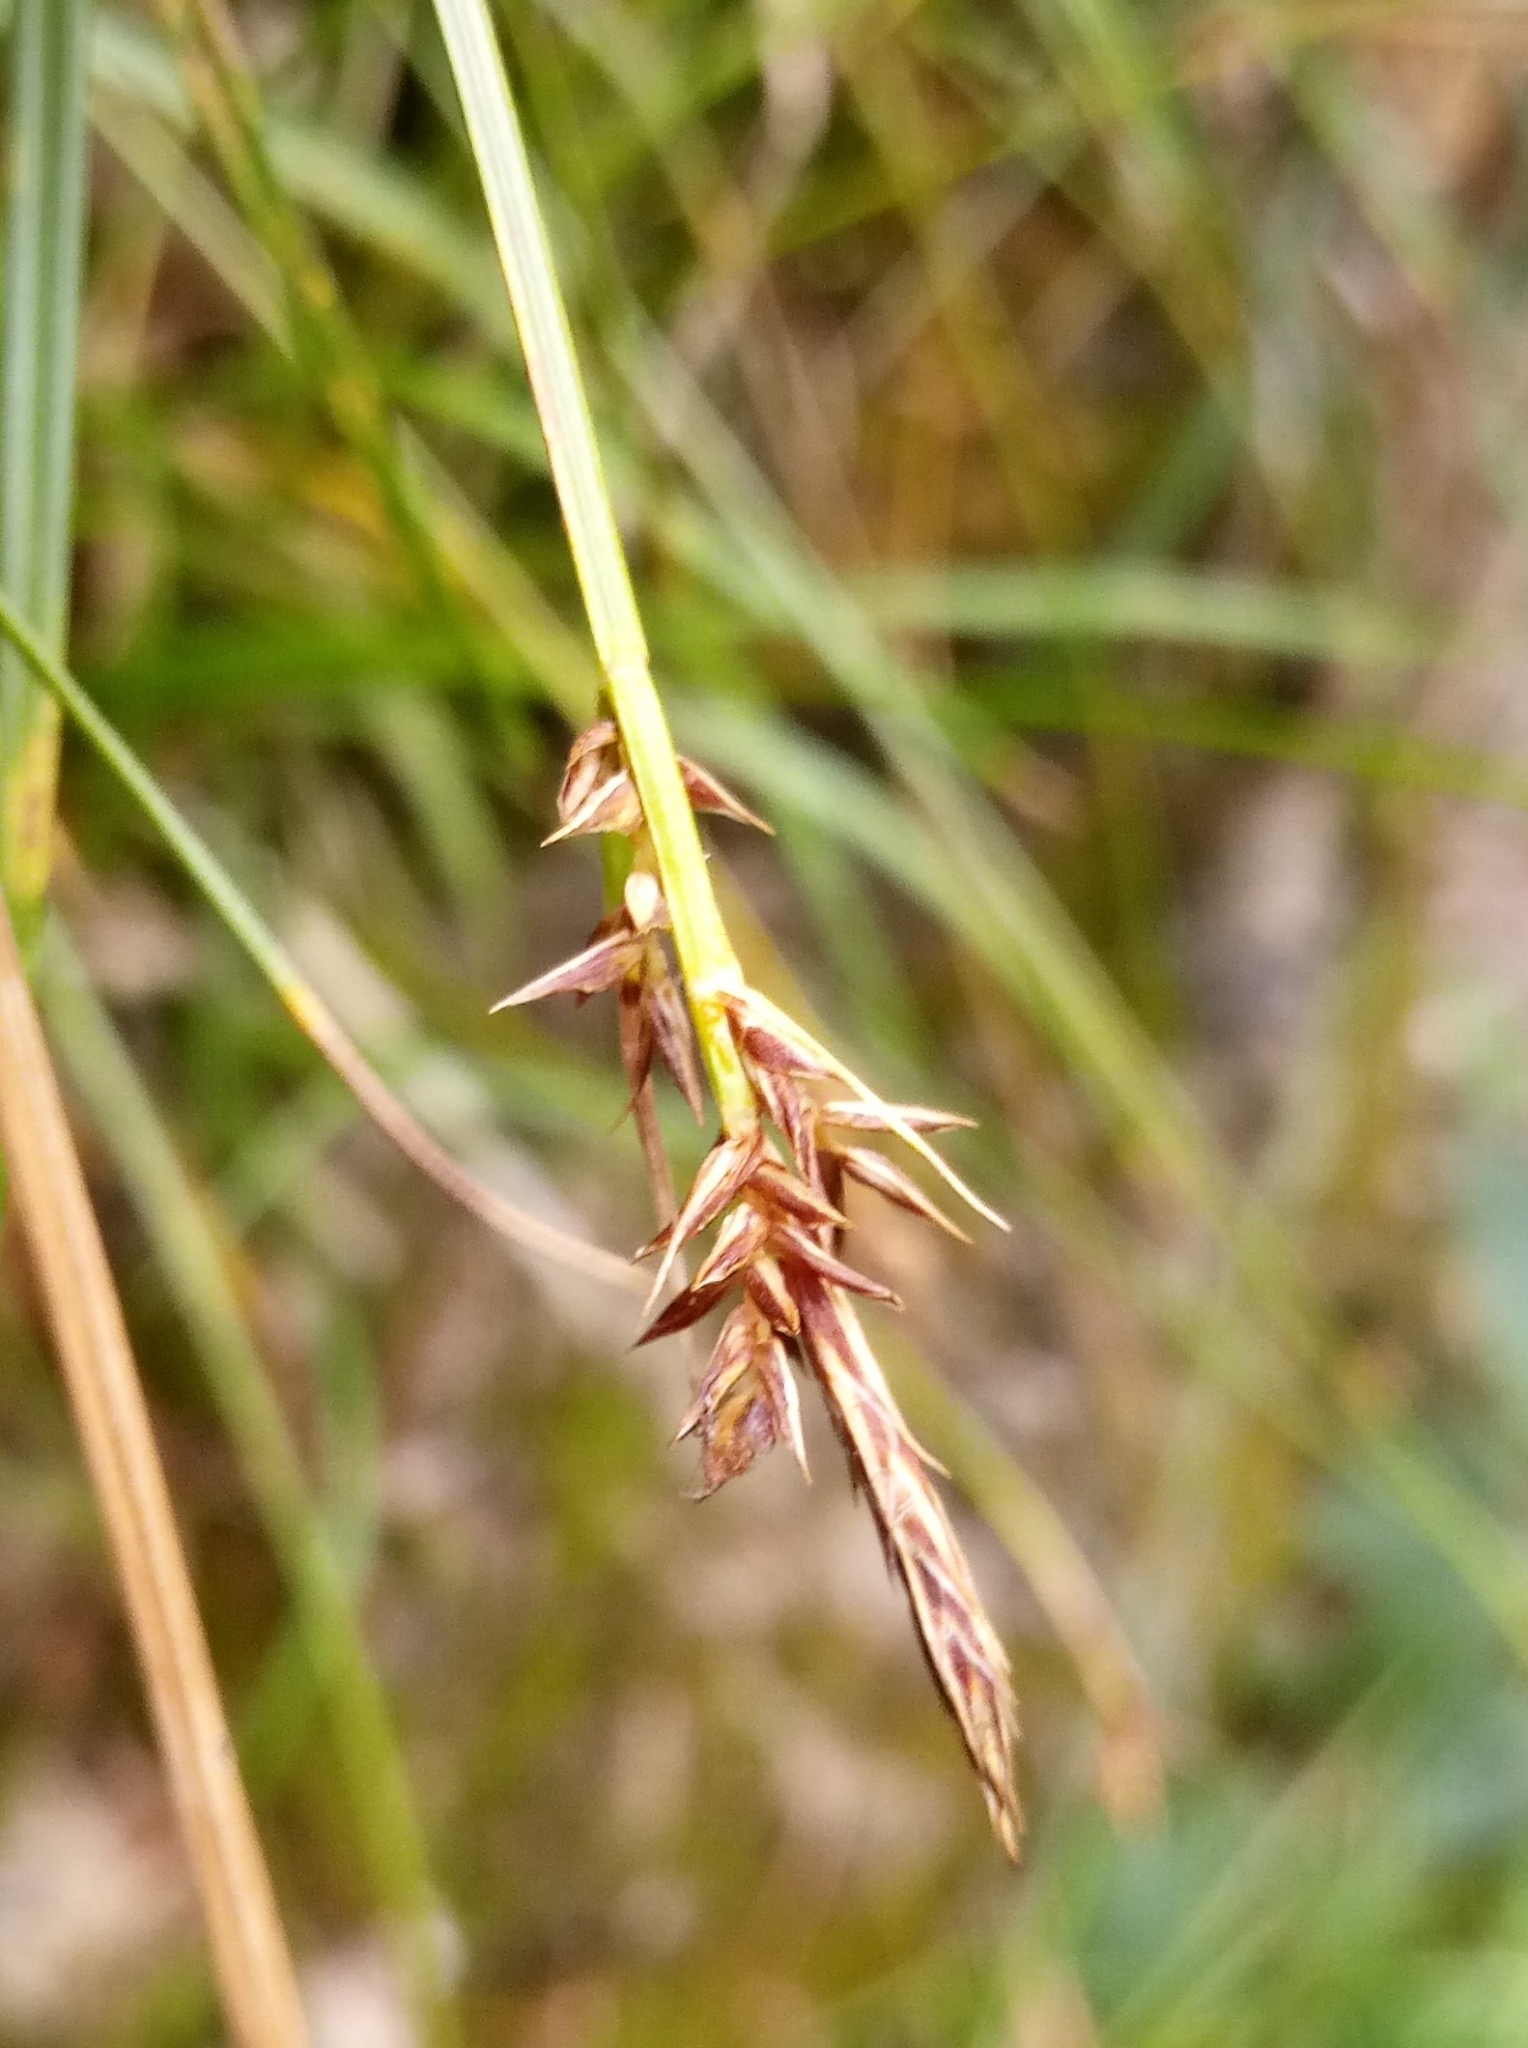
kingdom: Plantae
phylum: Tracheophyta
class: Liliopsida
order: Poales
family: Cyperaceae
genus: Carex
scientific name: Carex pilulifera
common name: Pill sedge
